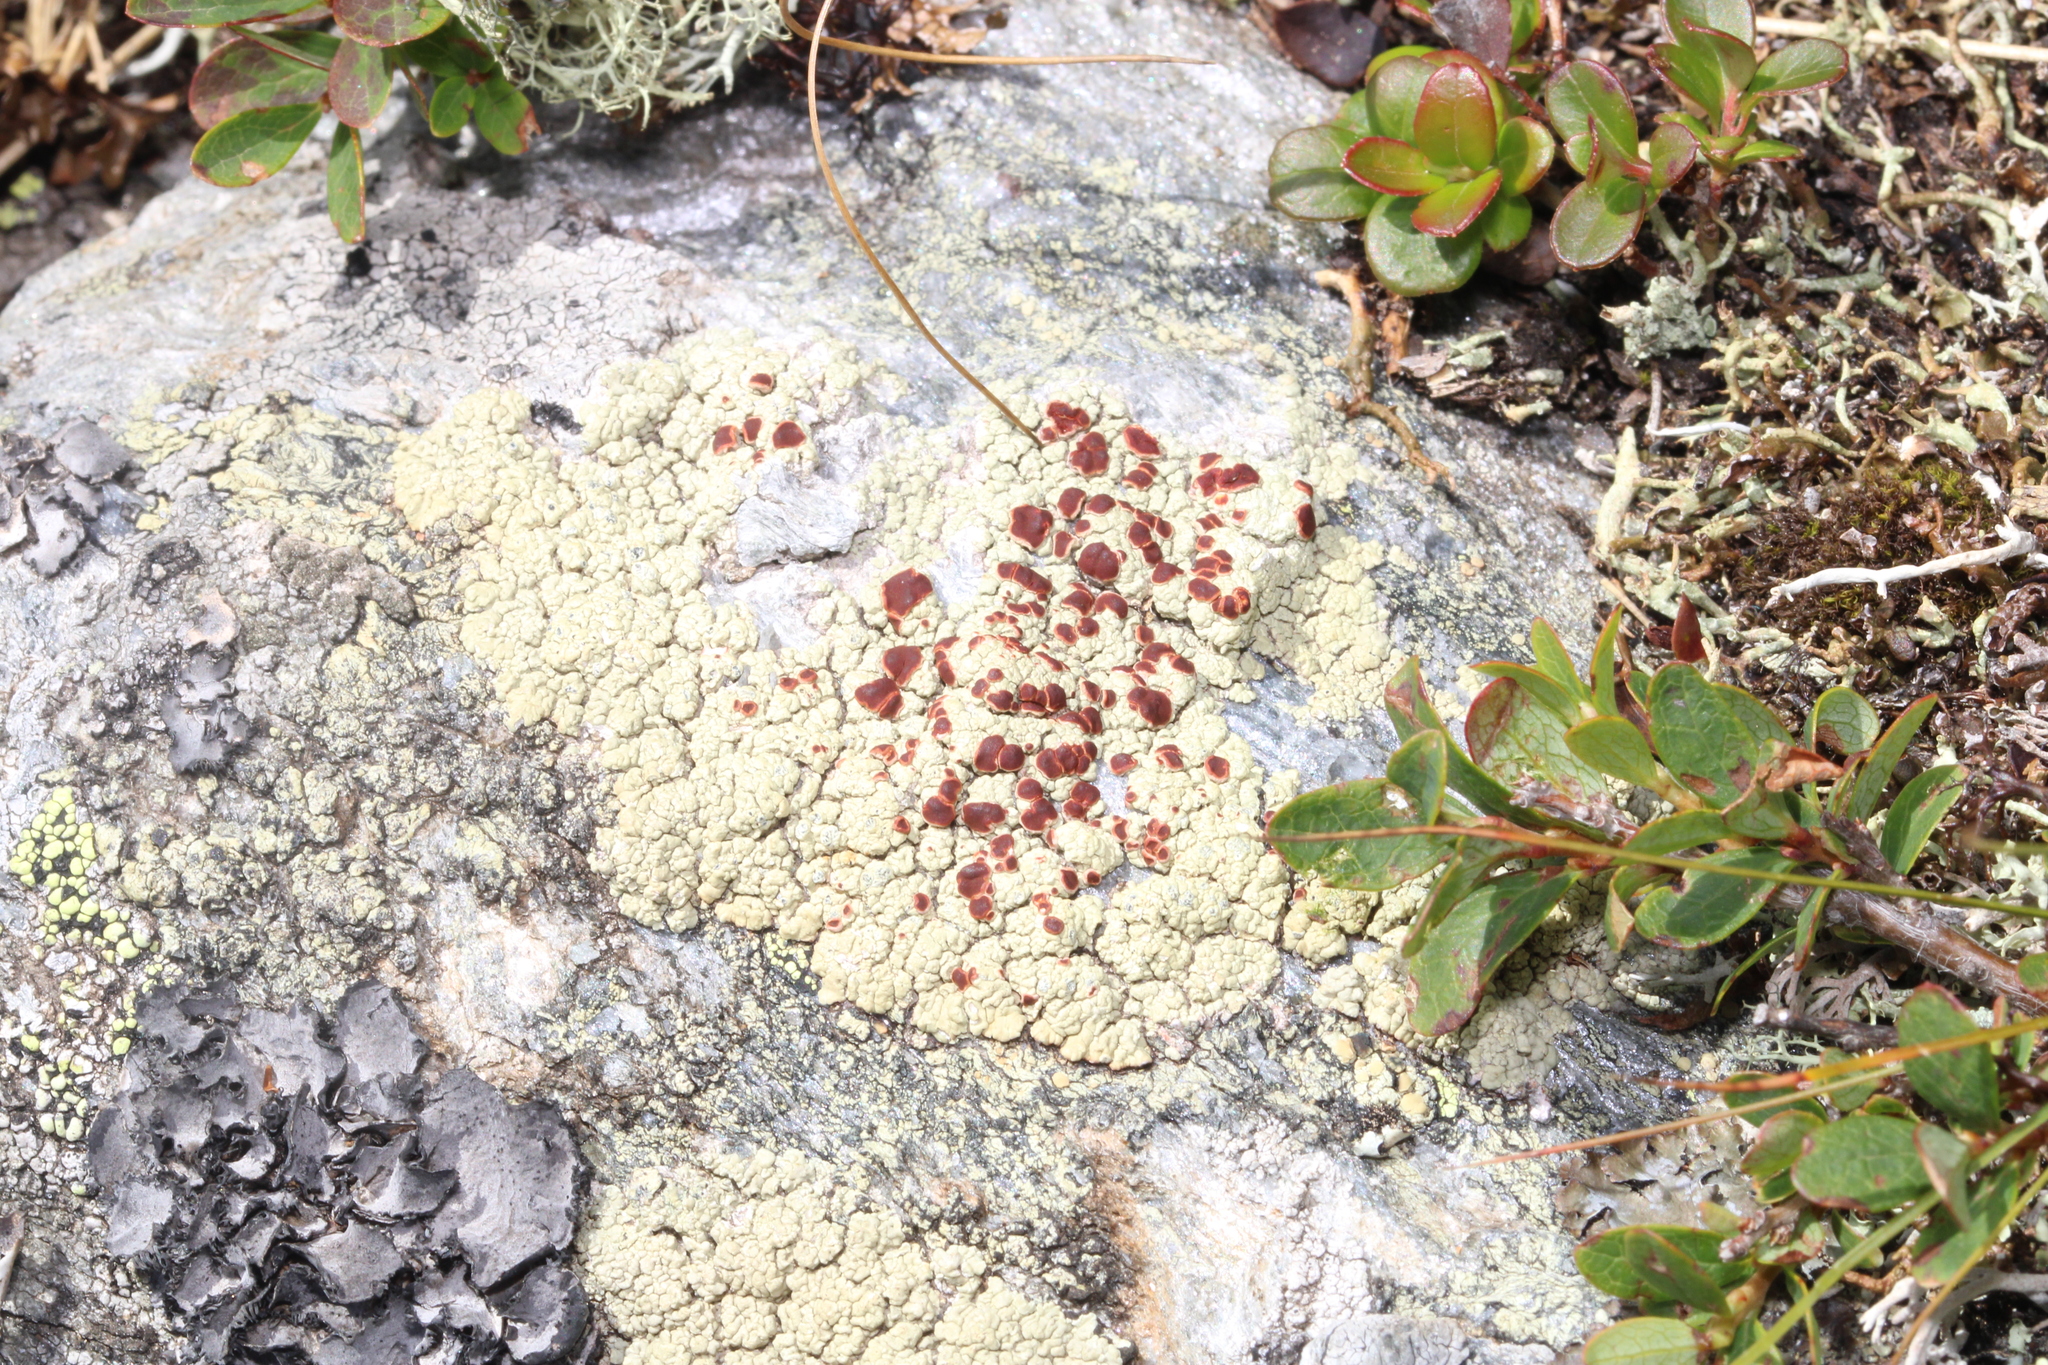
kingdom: Fungi
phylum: Ascomycota
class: Lecanoromycetes
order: Umbilicariales
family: Ophioparmaceae
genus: Ophioparma
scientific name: Ophioparma ventosa
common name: Blood-spot
